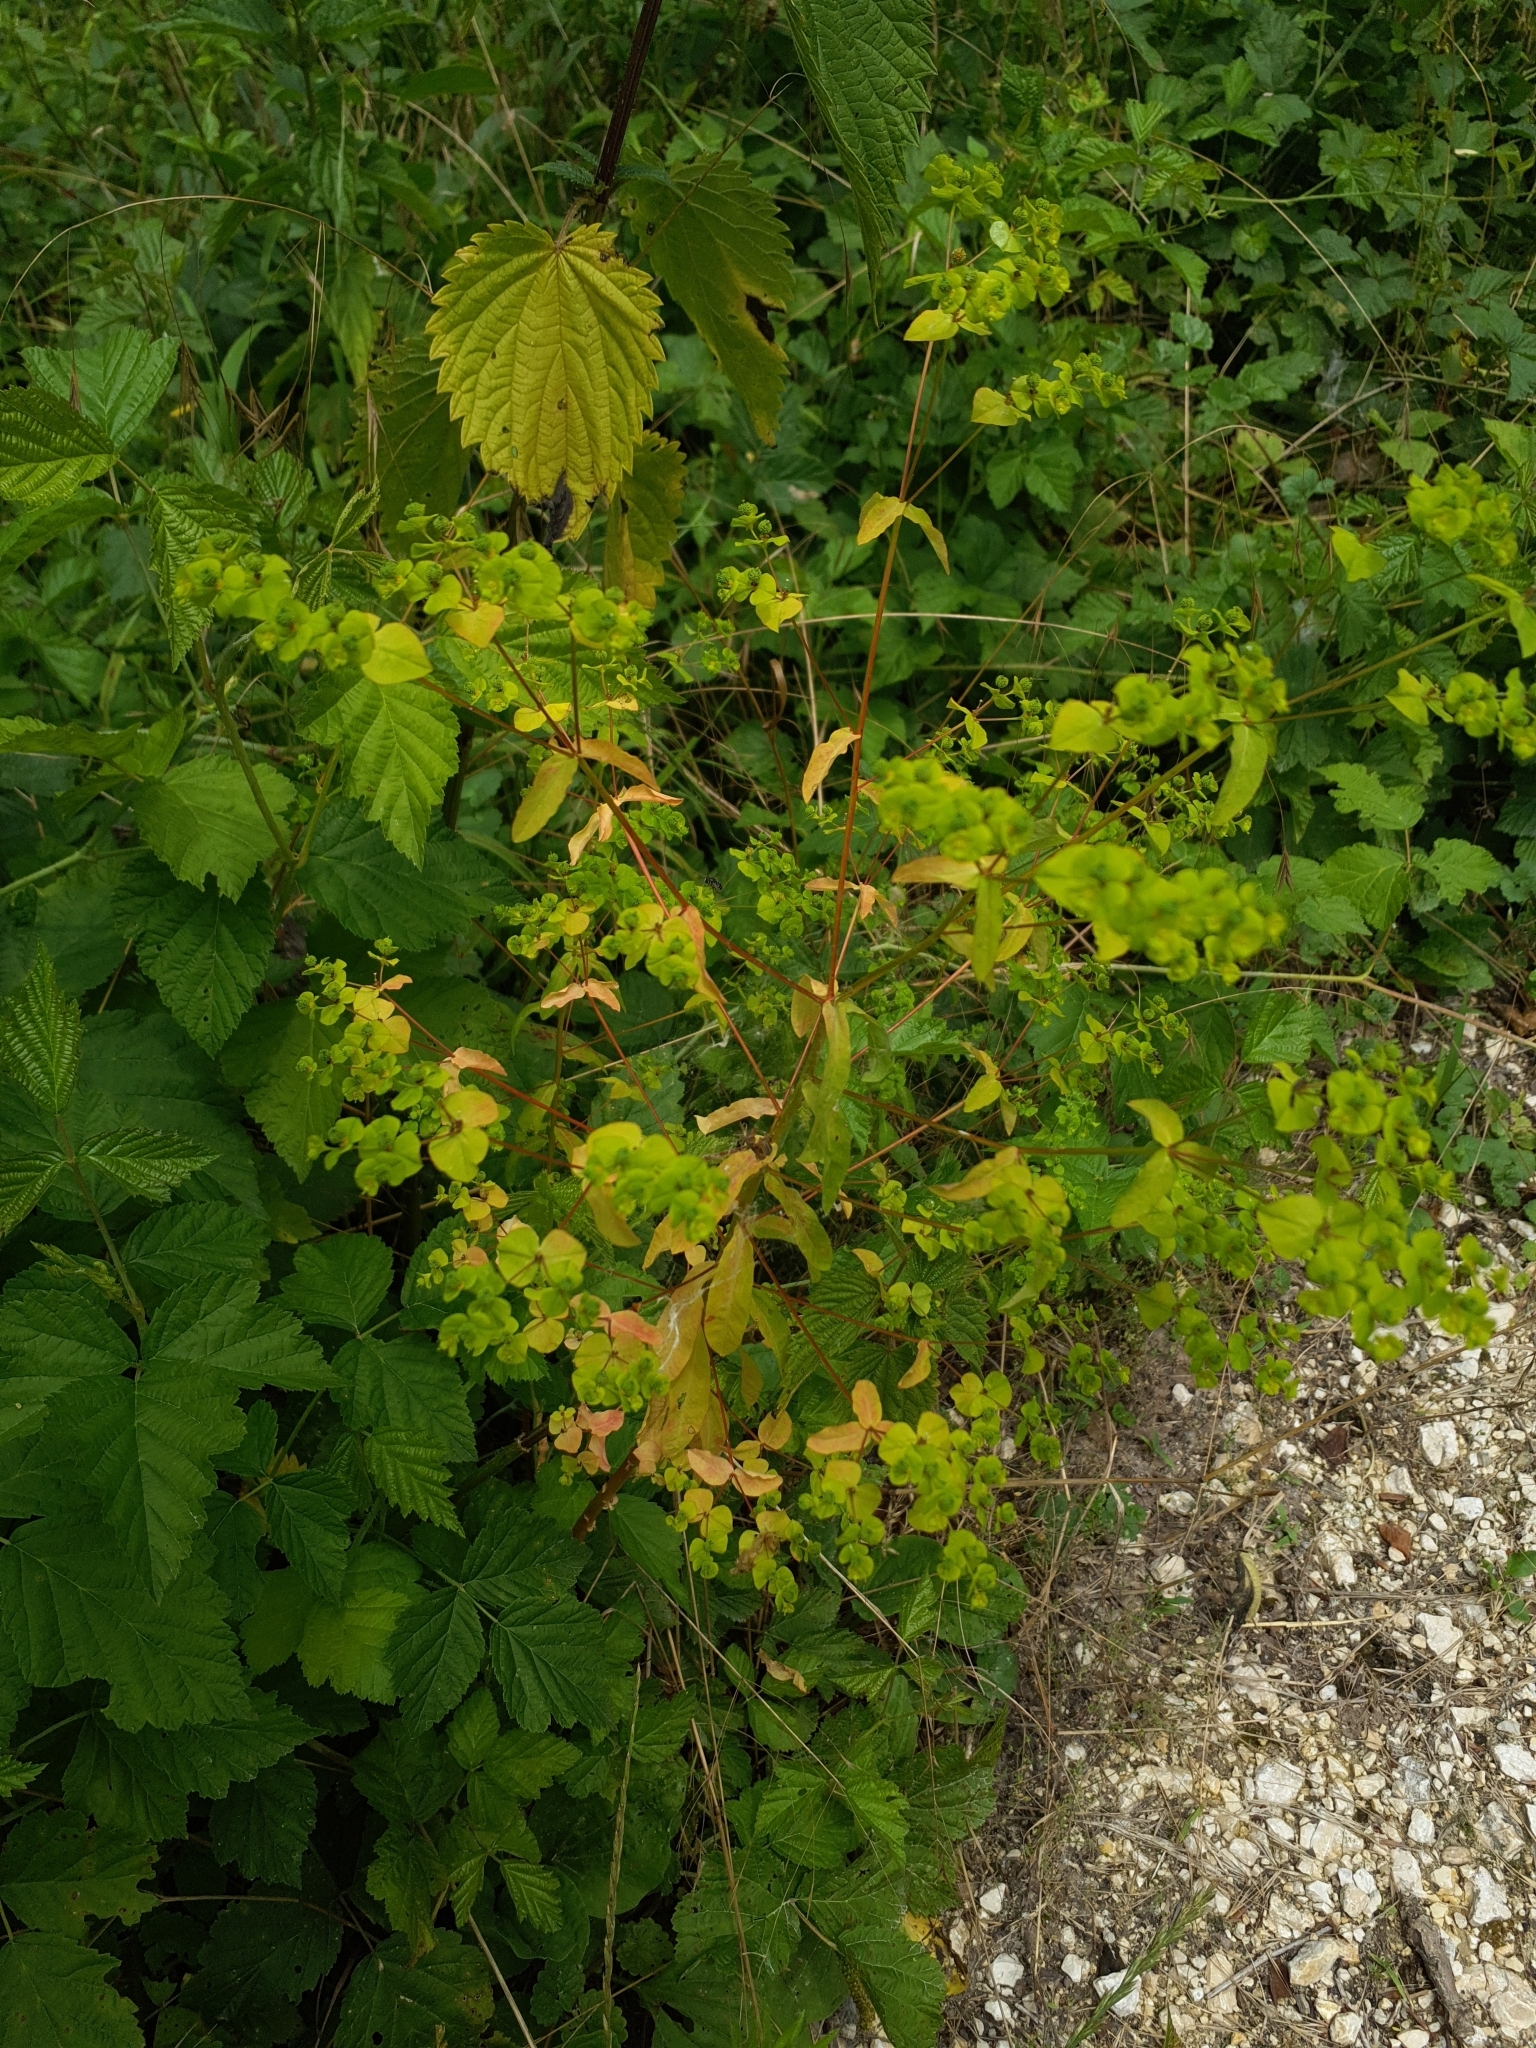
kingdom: Plantae
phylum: Tracheophyta
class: Magnoliopsida
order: Malpighiales
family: Euphorbiaceae
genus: Euphorbia
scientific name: Euphorbia stricta
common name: Upright spurge
